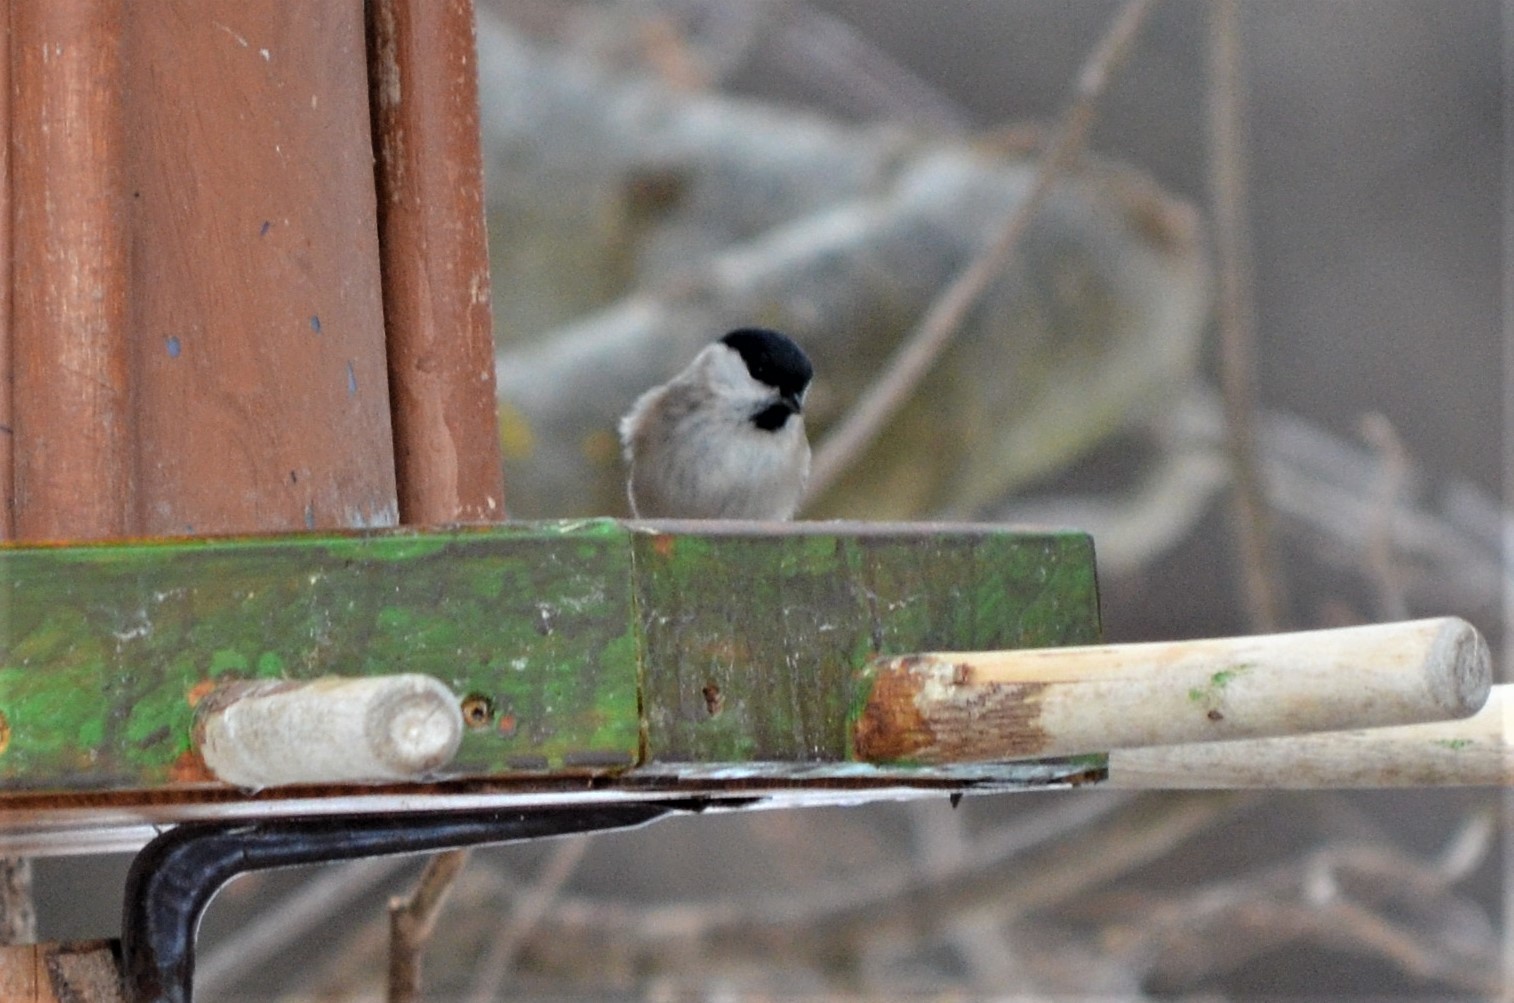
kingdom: Animalia
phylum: Chordata
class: Aves
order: Passeriformes
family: Paridae
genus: Poecile
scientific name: Poecile palustris
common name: Marsh tit
